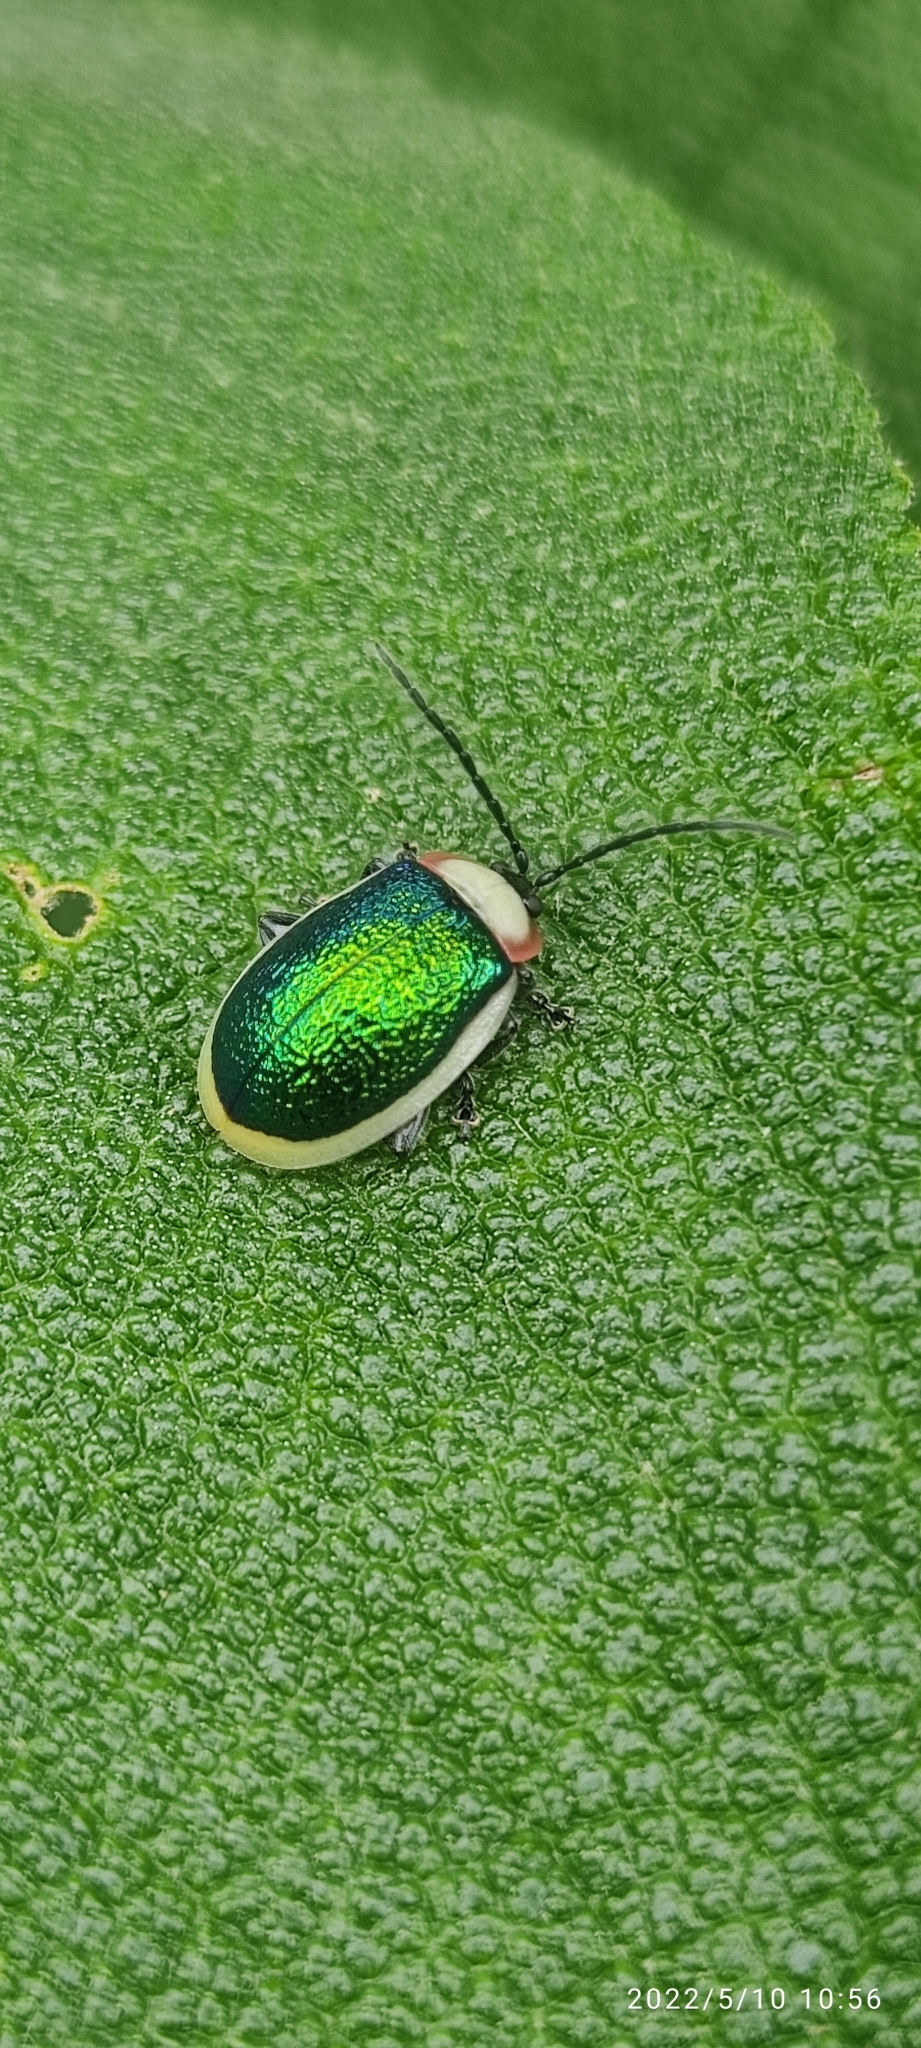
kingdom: Animalia
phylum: Arthropoda
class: Insecta
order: Coleoptera
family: Chrysomelidae
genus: Asphaera
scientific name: Asphaera
